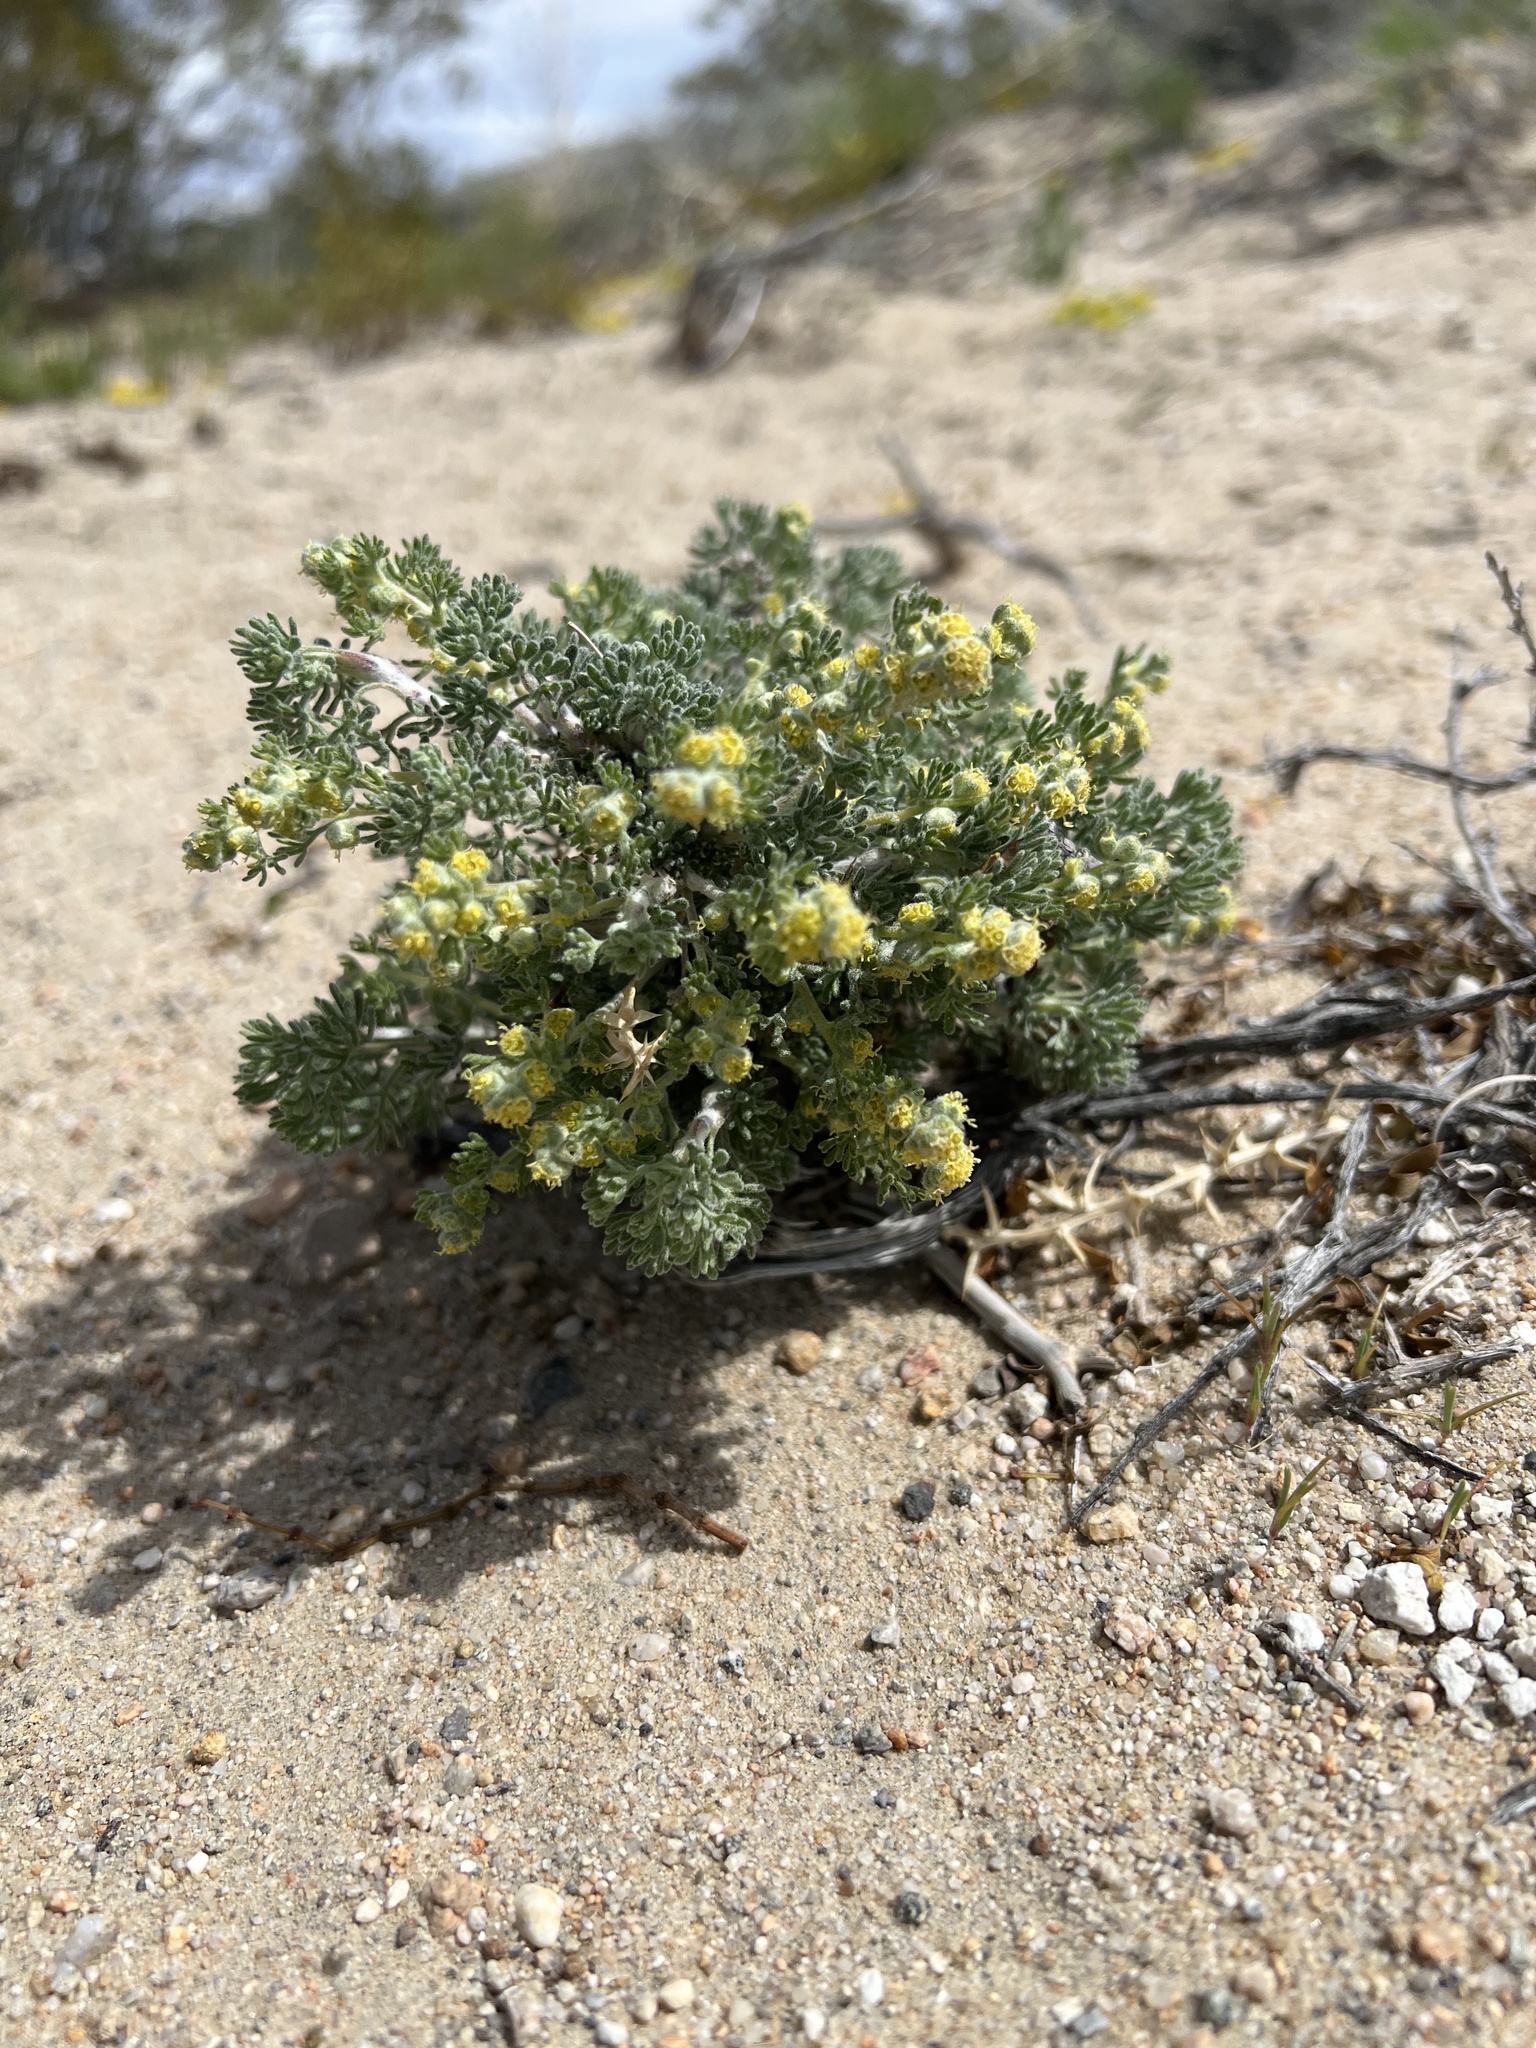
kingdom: Plantae
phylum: Tracheophyta
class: Magnoliopsida
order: Asterales
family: Asteraceae
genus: Artemisia
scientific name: Artemisia spinescens
